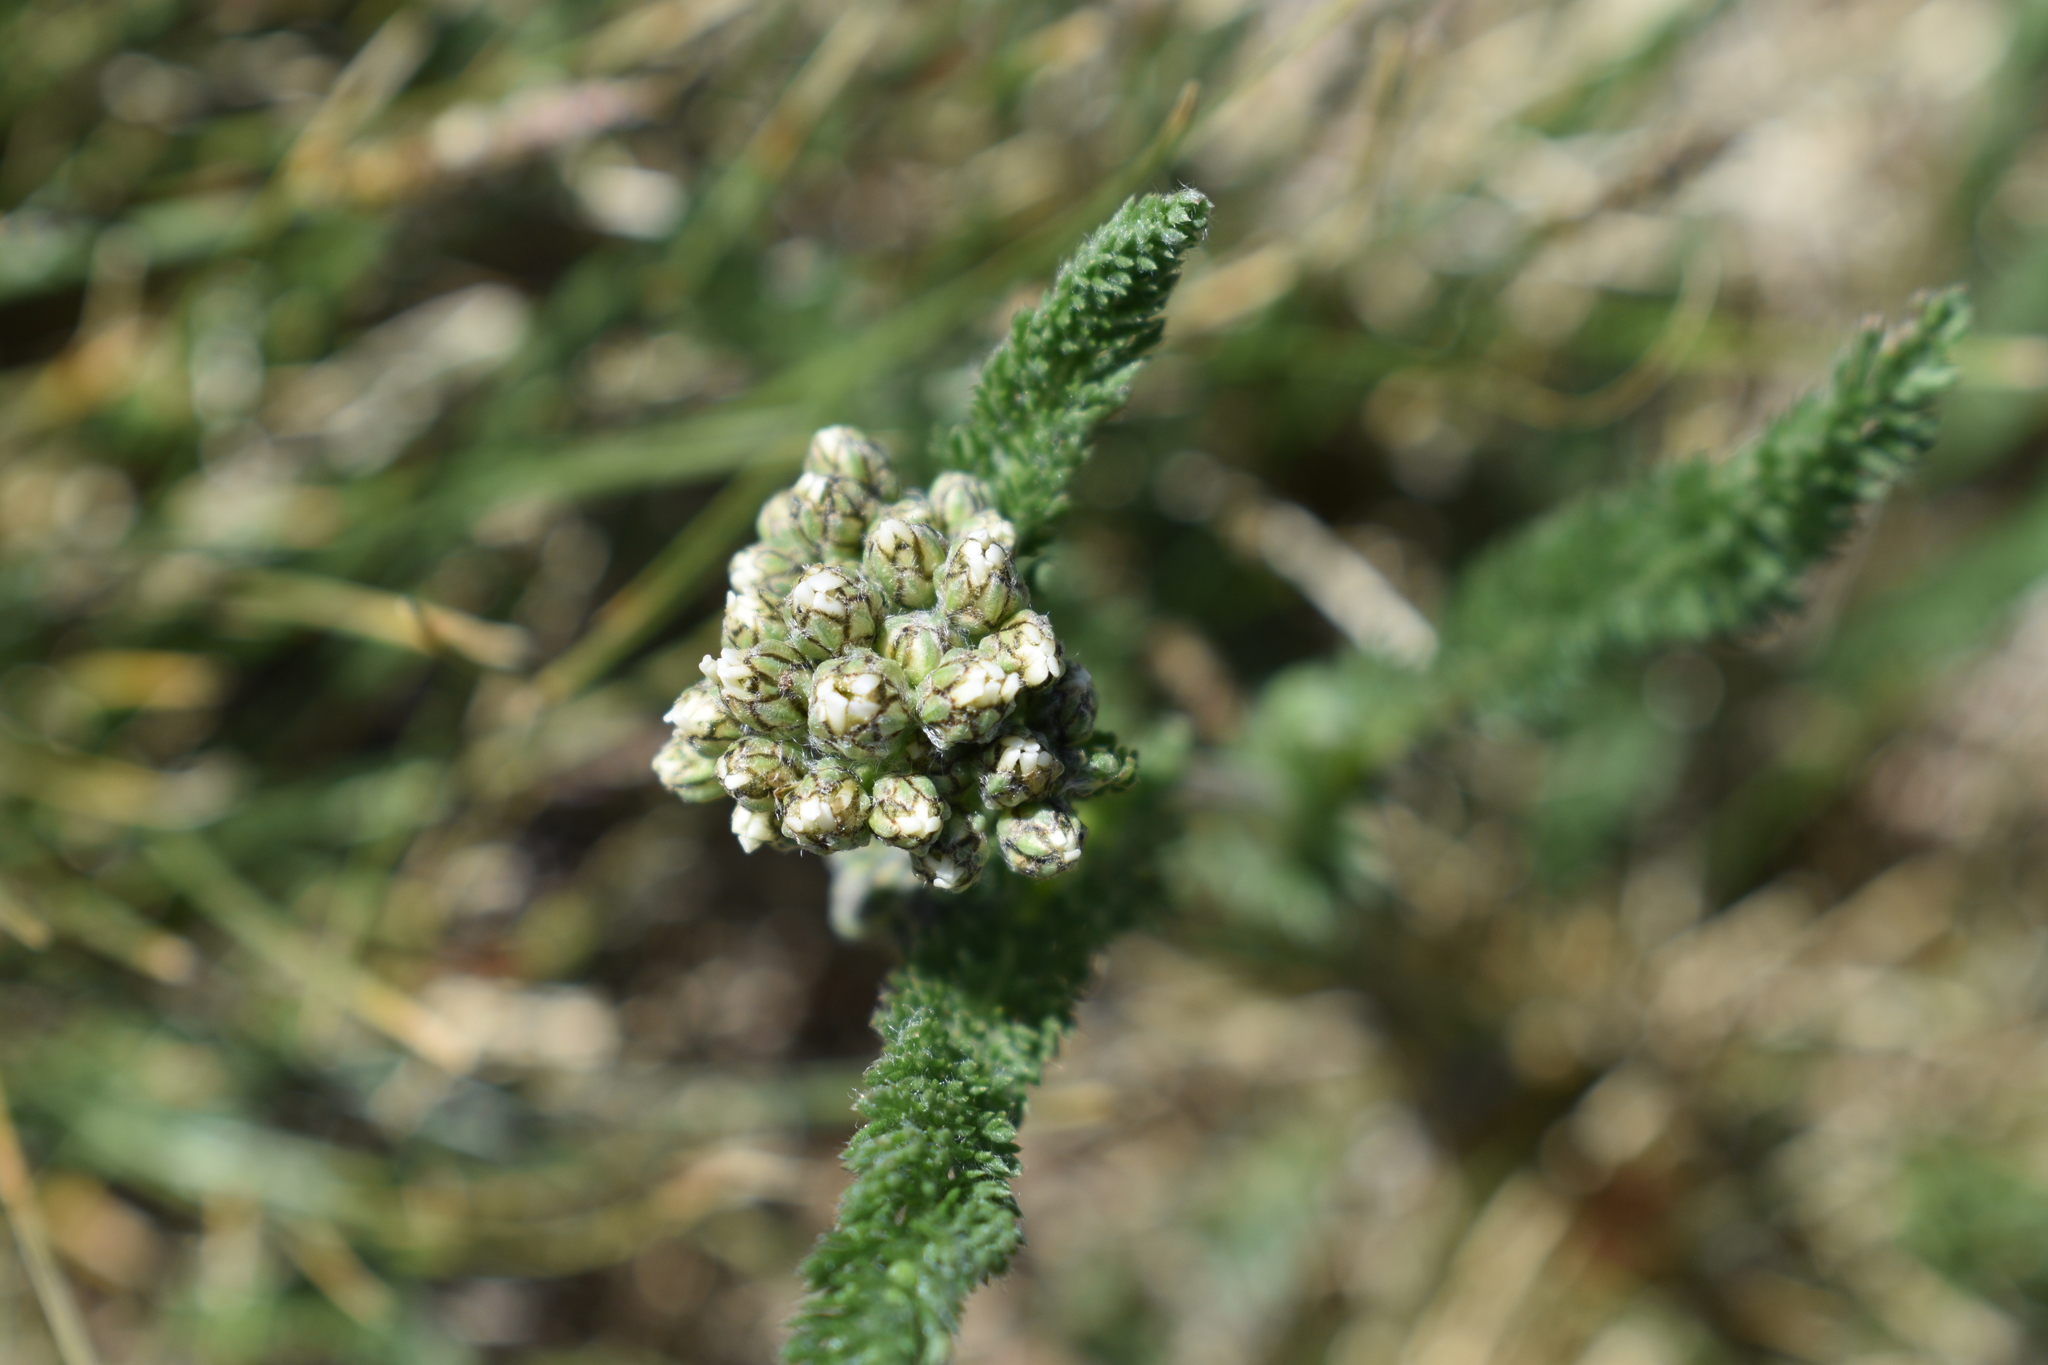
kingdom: Plantae
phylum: Tracheophyta
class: Magnoliopsida
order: Asterales
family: Asteraceae
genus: Achillea
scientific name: Achillea millefolium
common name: Yarrow
